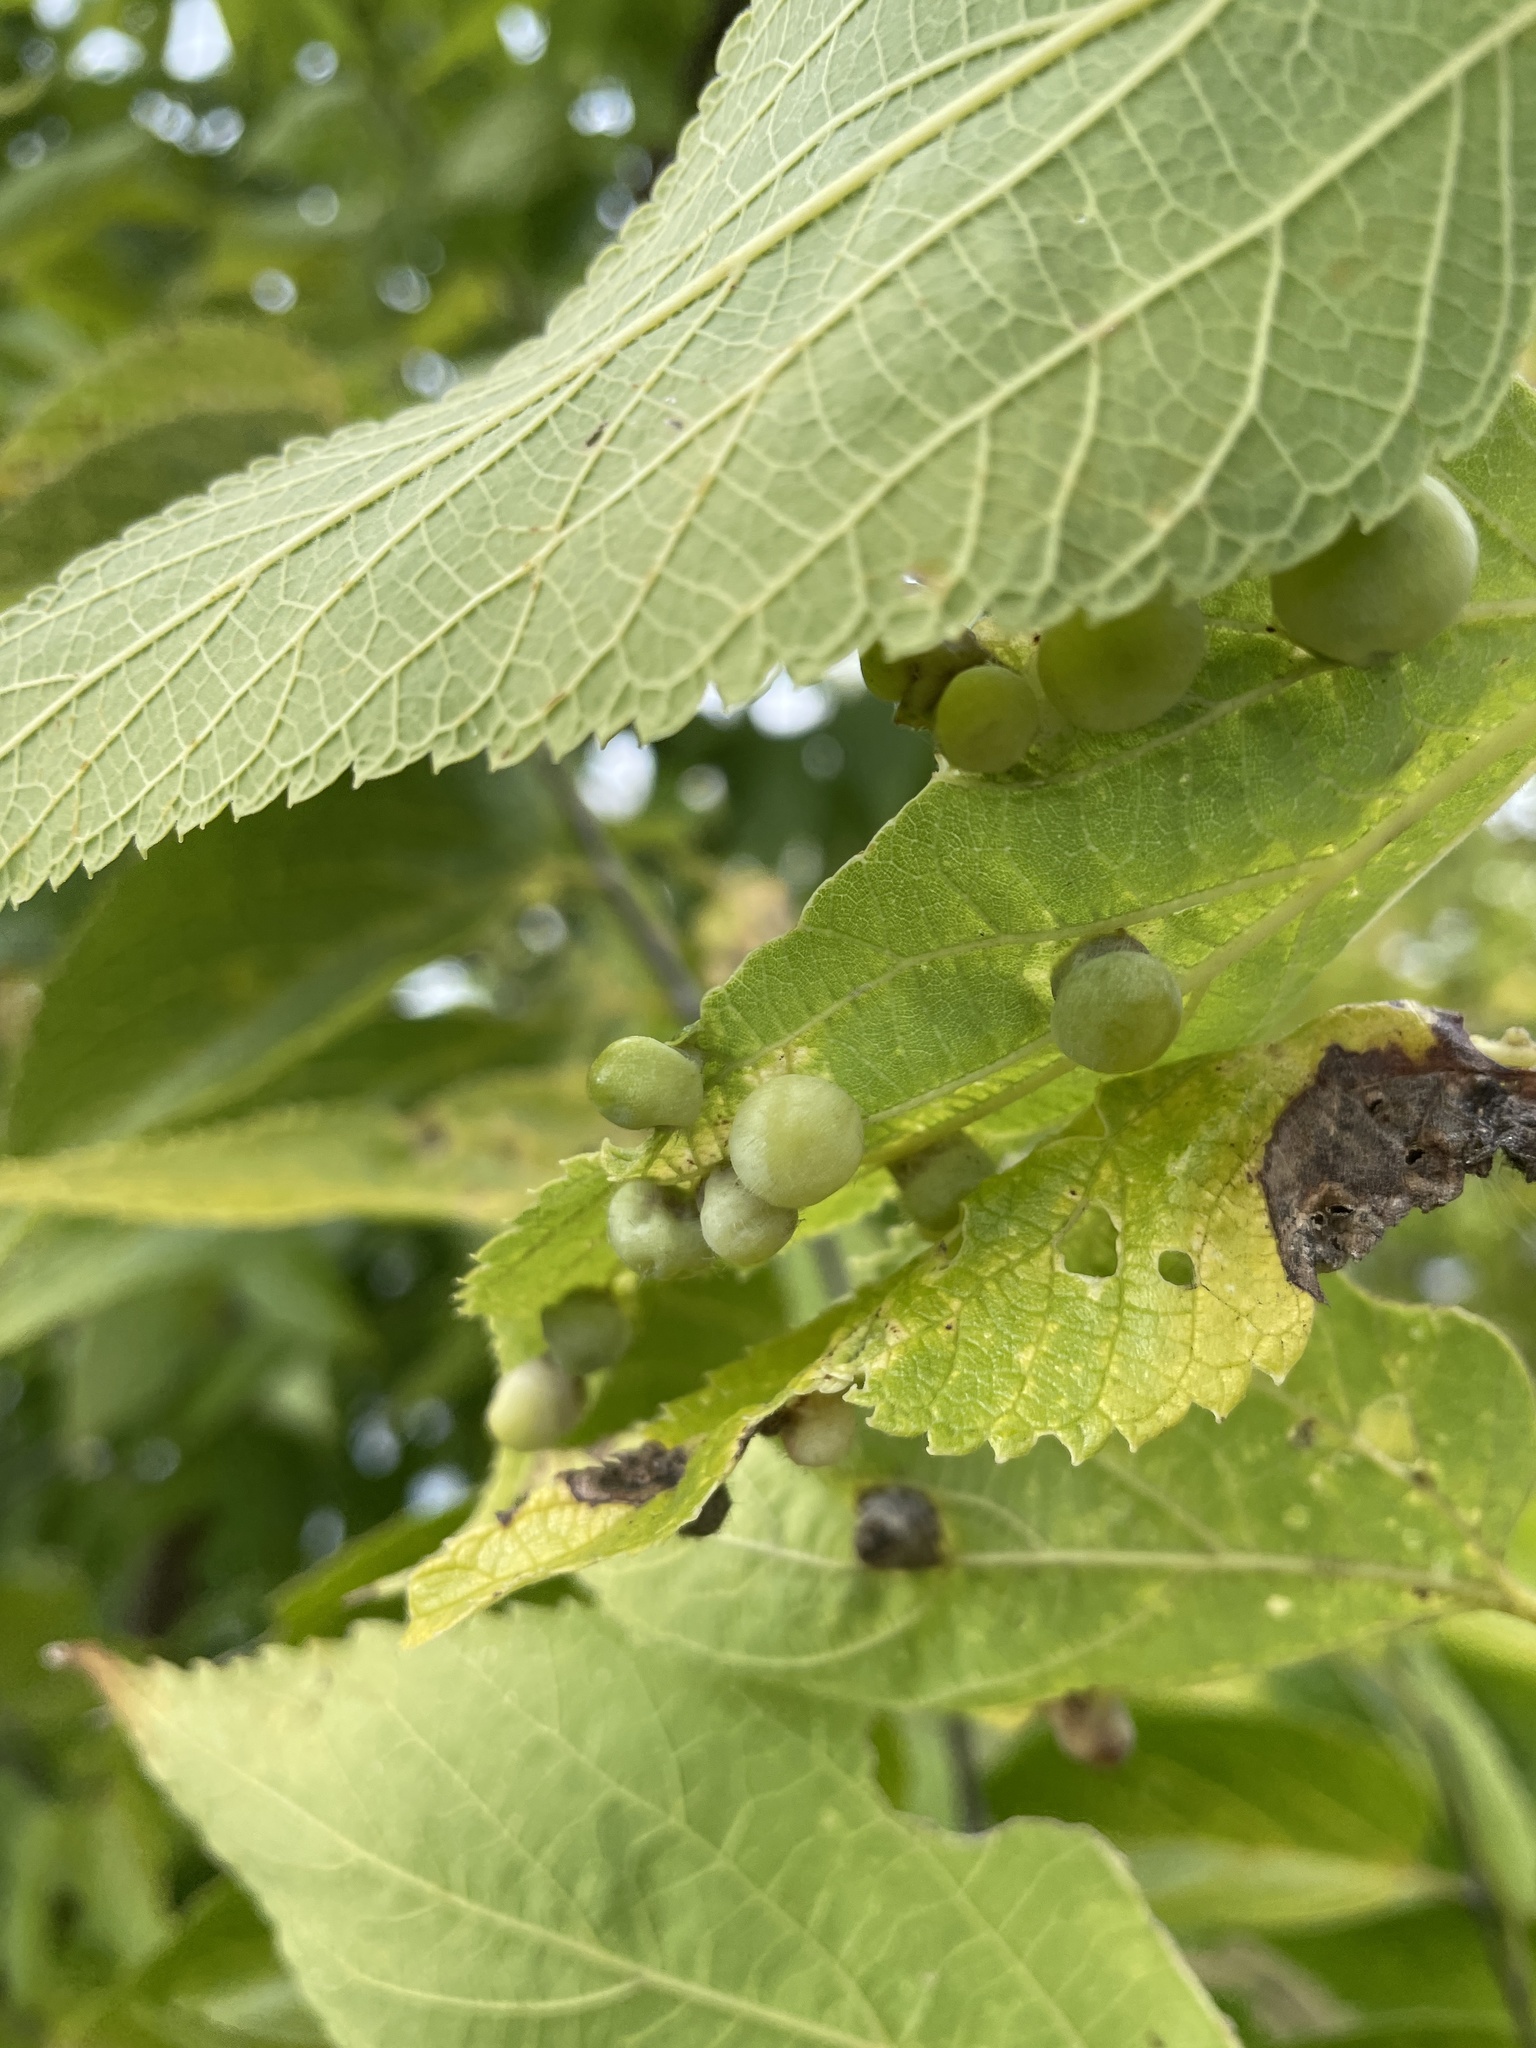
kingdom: Animalia
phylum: Arthropoda
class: Insecta
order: Hemiptera
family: Aphalaridae
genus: Pachypsylla
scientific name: Pachypsylla celtidismamma
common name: Hackberry nipplegall psyllid
